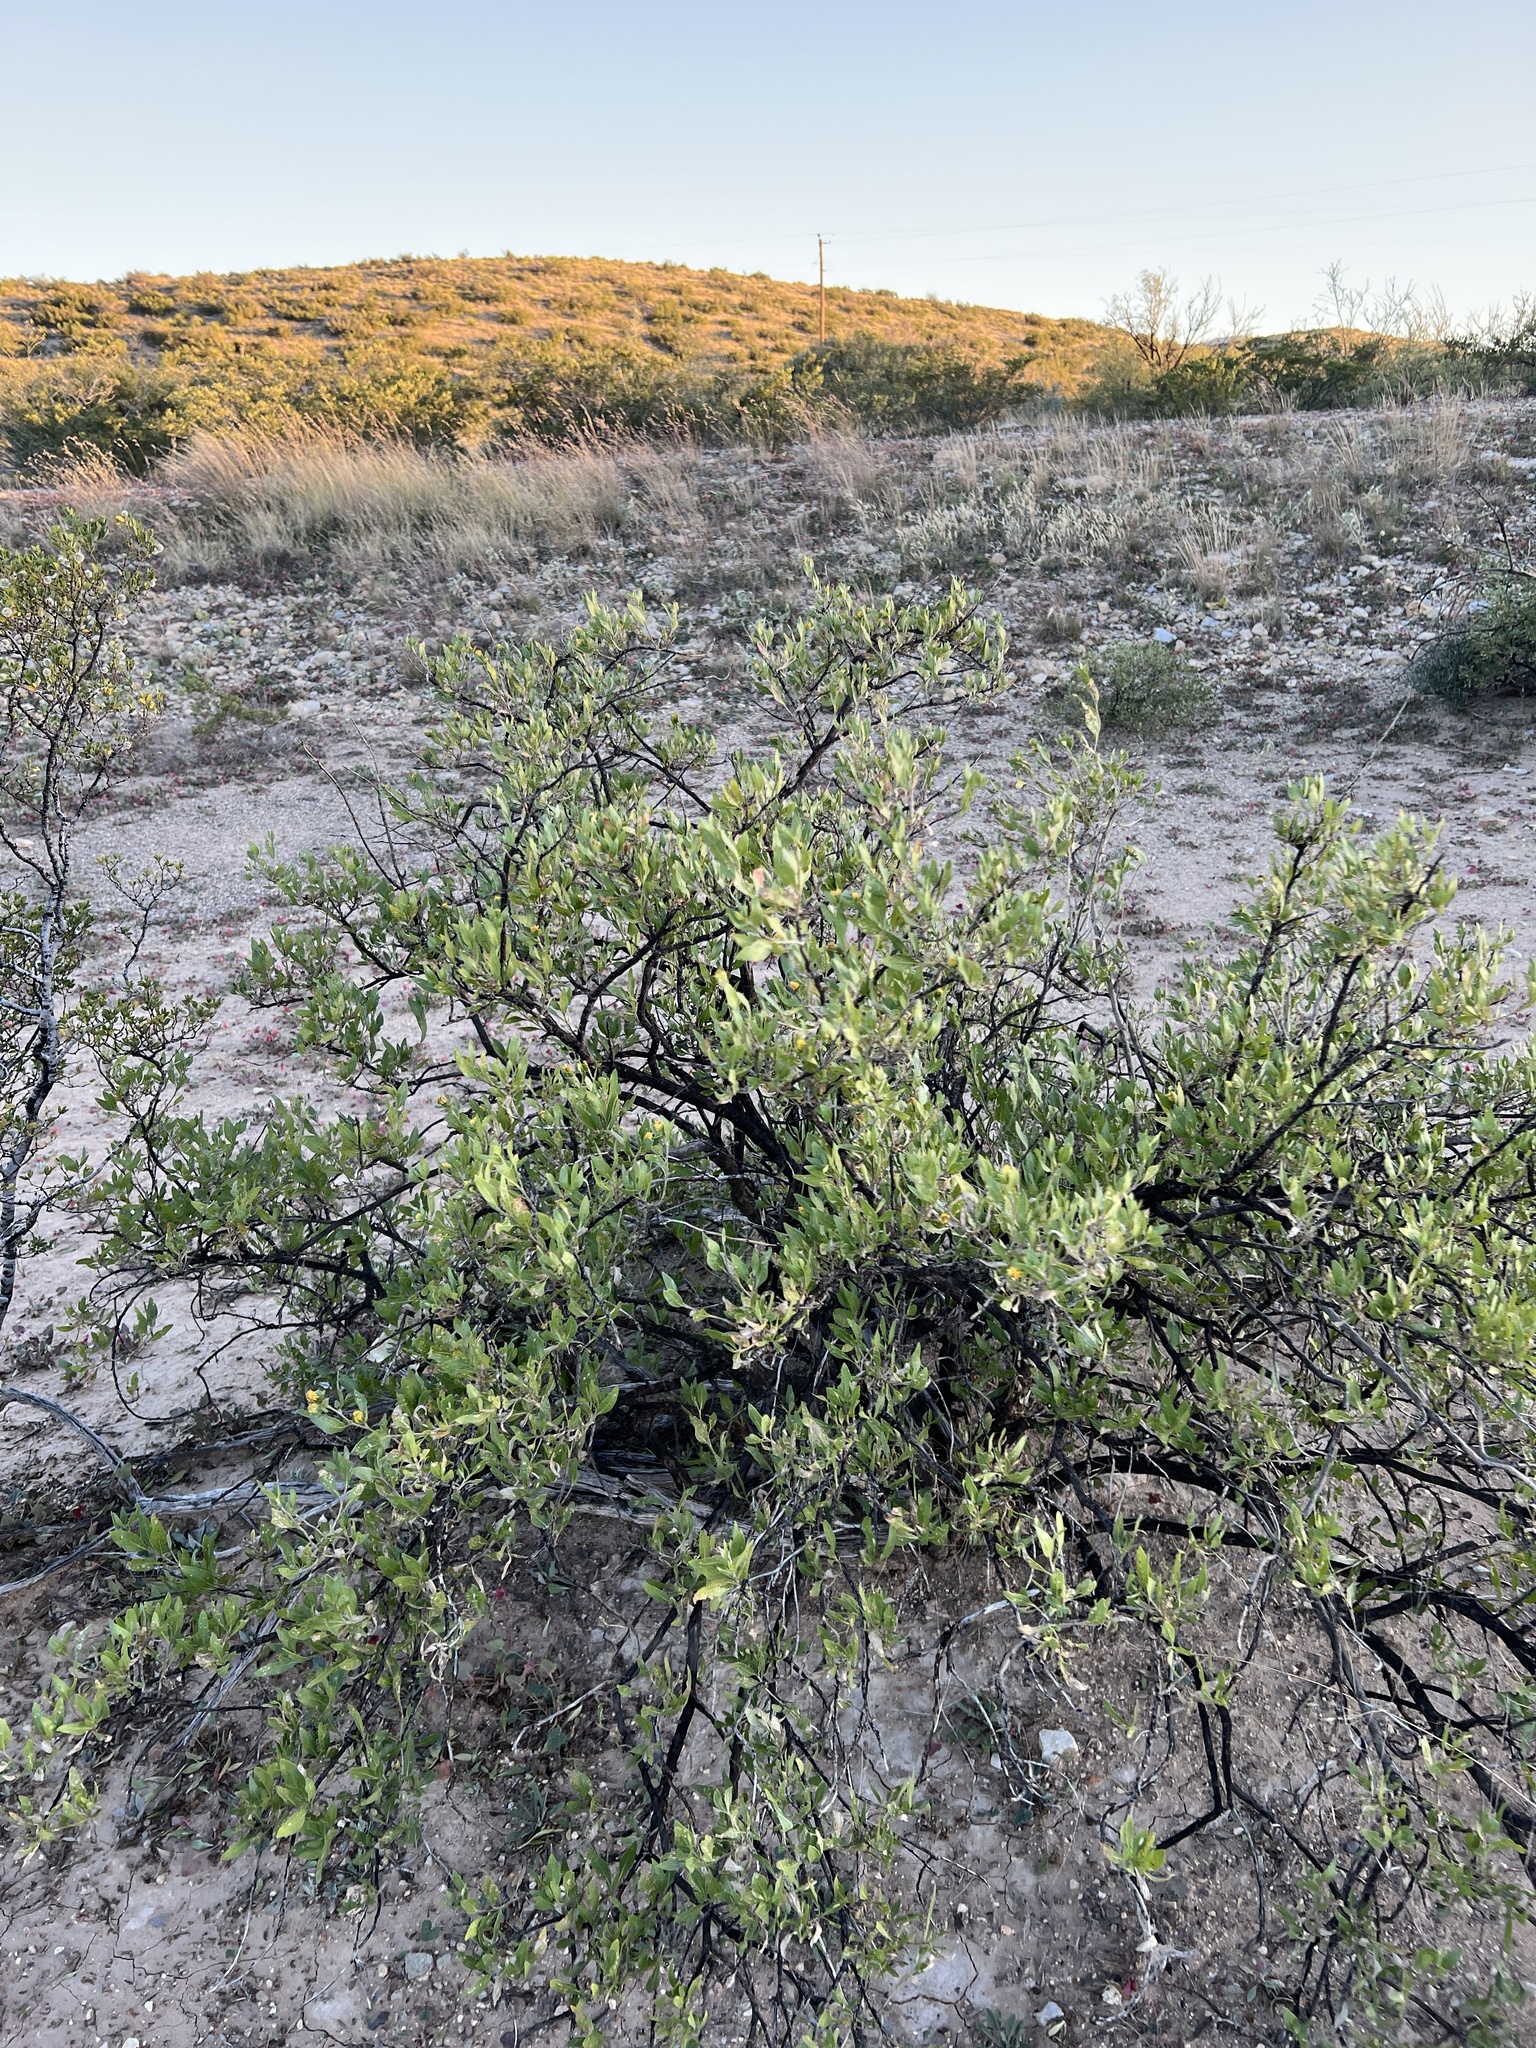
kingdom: Plantae
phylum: Tracheophyta
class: Magnoliopsida
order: Asterales
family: Asteraceae
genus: Flourensia
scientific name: Flourensia cernua
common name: Varnishbush
